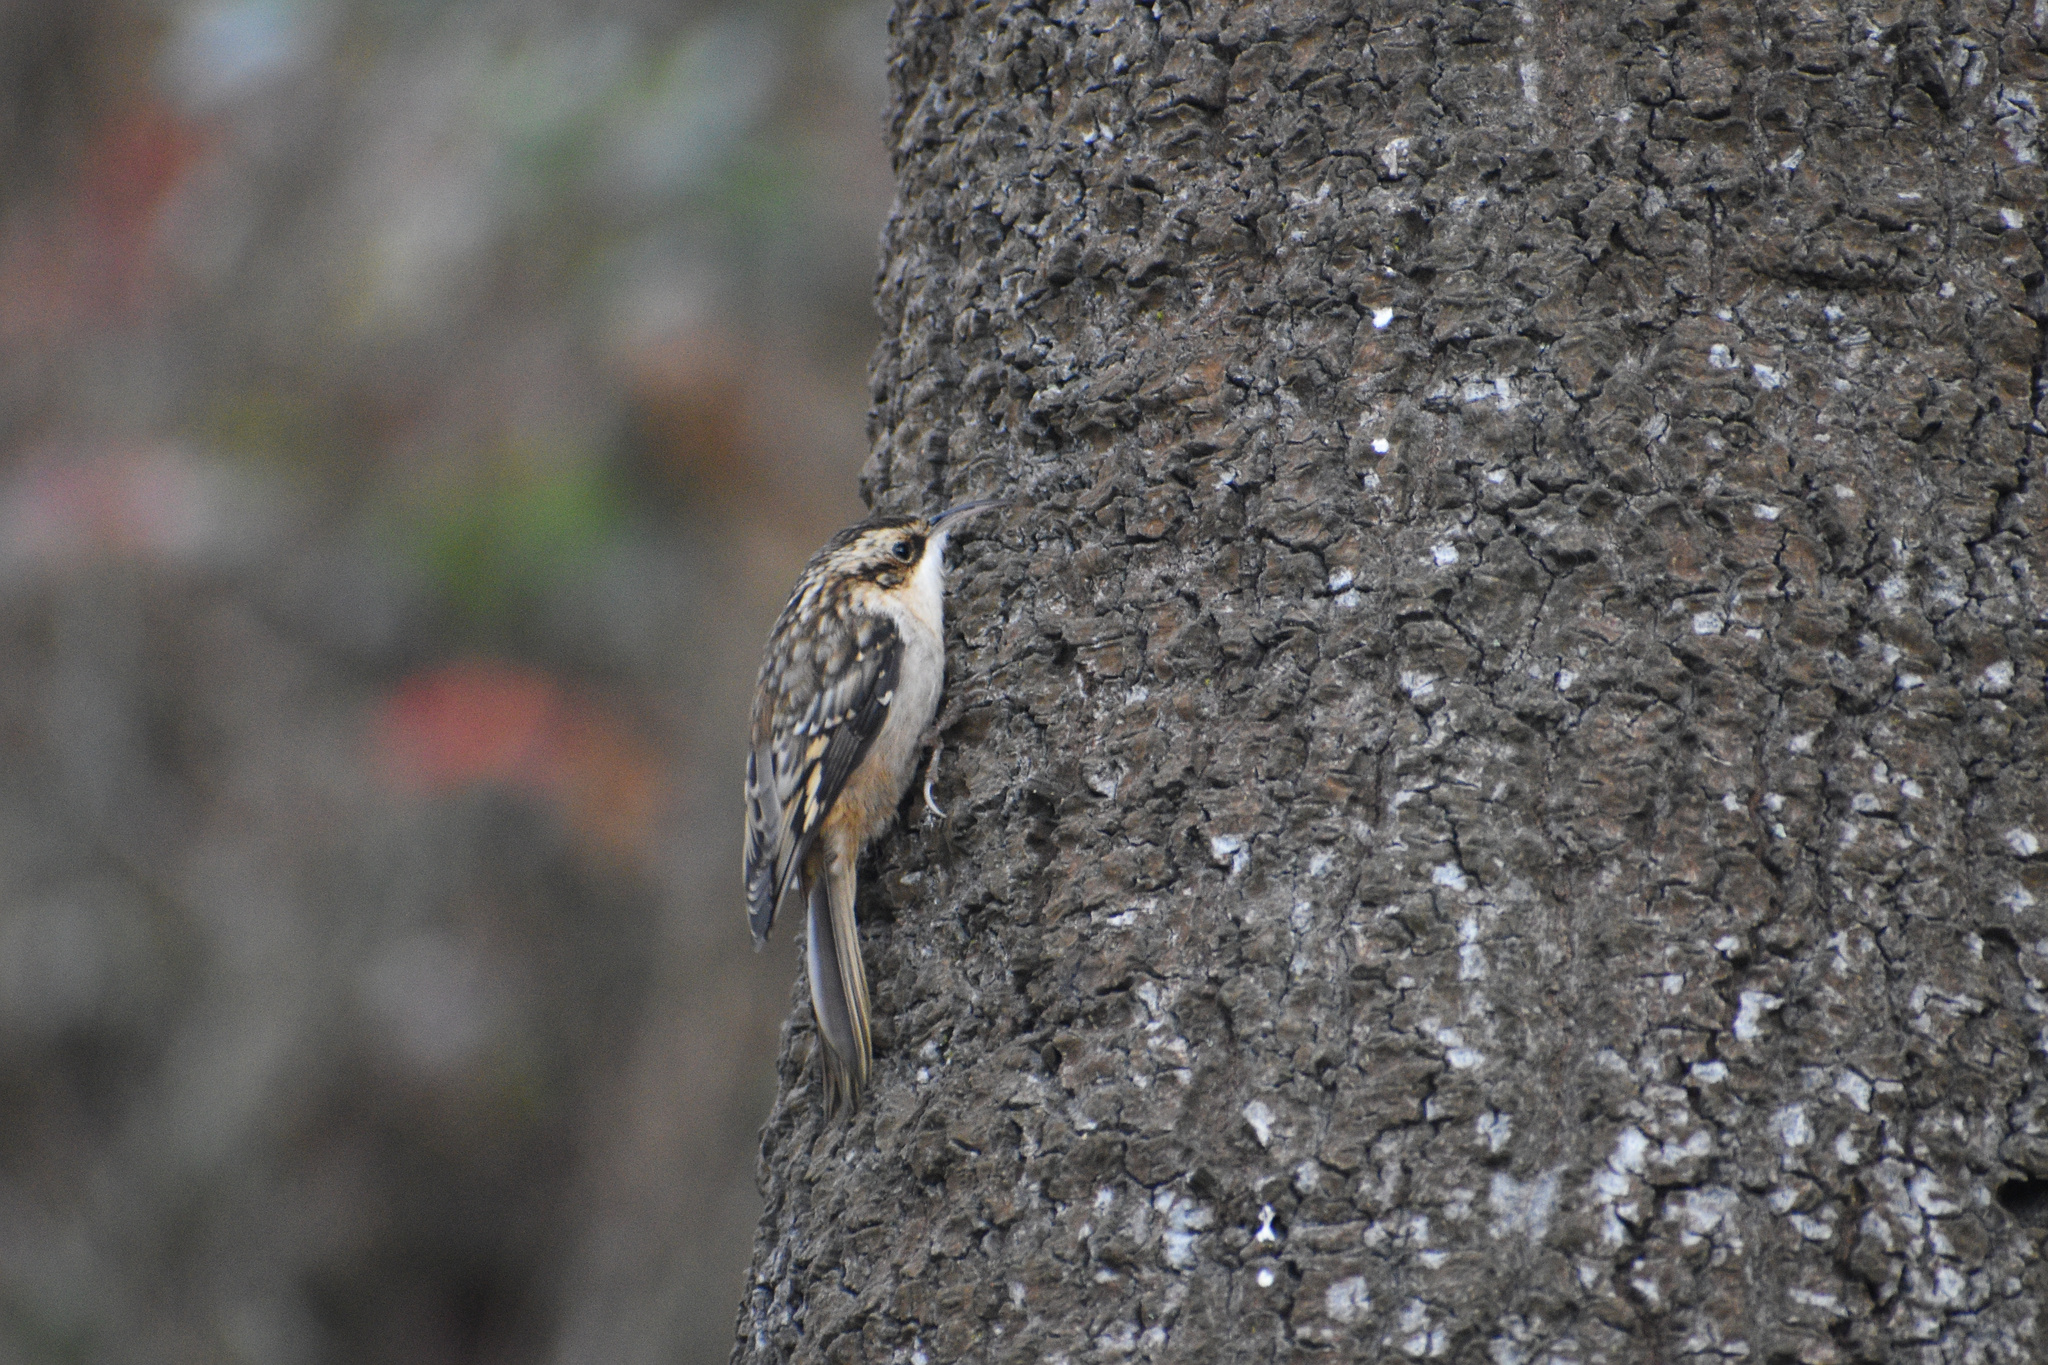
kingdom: Animalia
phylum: Chordata
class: Aves
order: Passeriformes
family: Certhiidae
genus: Certhia
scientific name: Certhia americana
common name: Brown creeper
